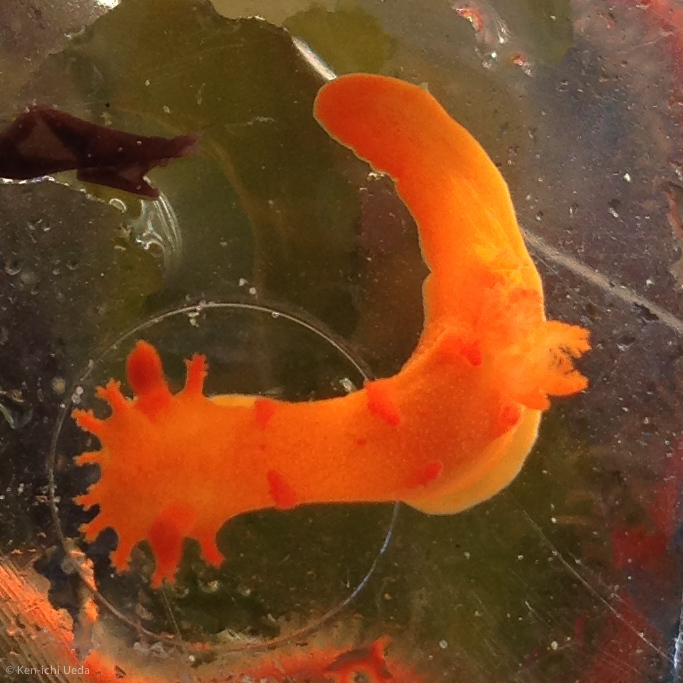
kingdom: Animalia
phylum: Mollusca
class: Gastropoda
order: Nudibranchia
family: Polyceridae
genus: Triopha
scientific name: Triopha maculata
